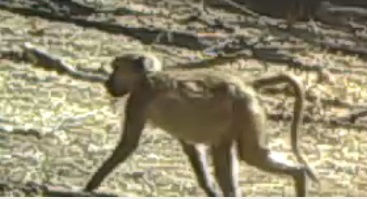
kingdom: Animalia
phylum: Chordata
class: Mammalia
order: Primates
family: Cercopithecidae
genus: Papio
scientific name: Papio ursinus
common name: Chacma baboon
